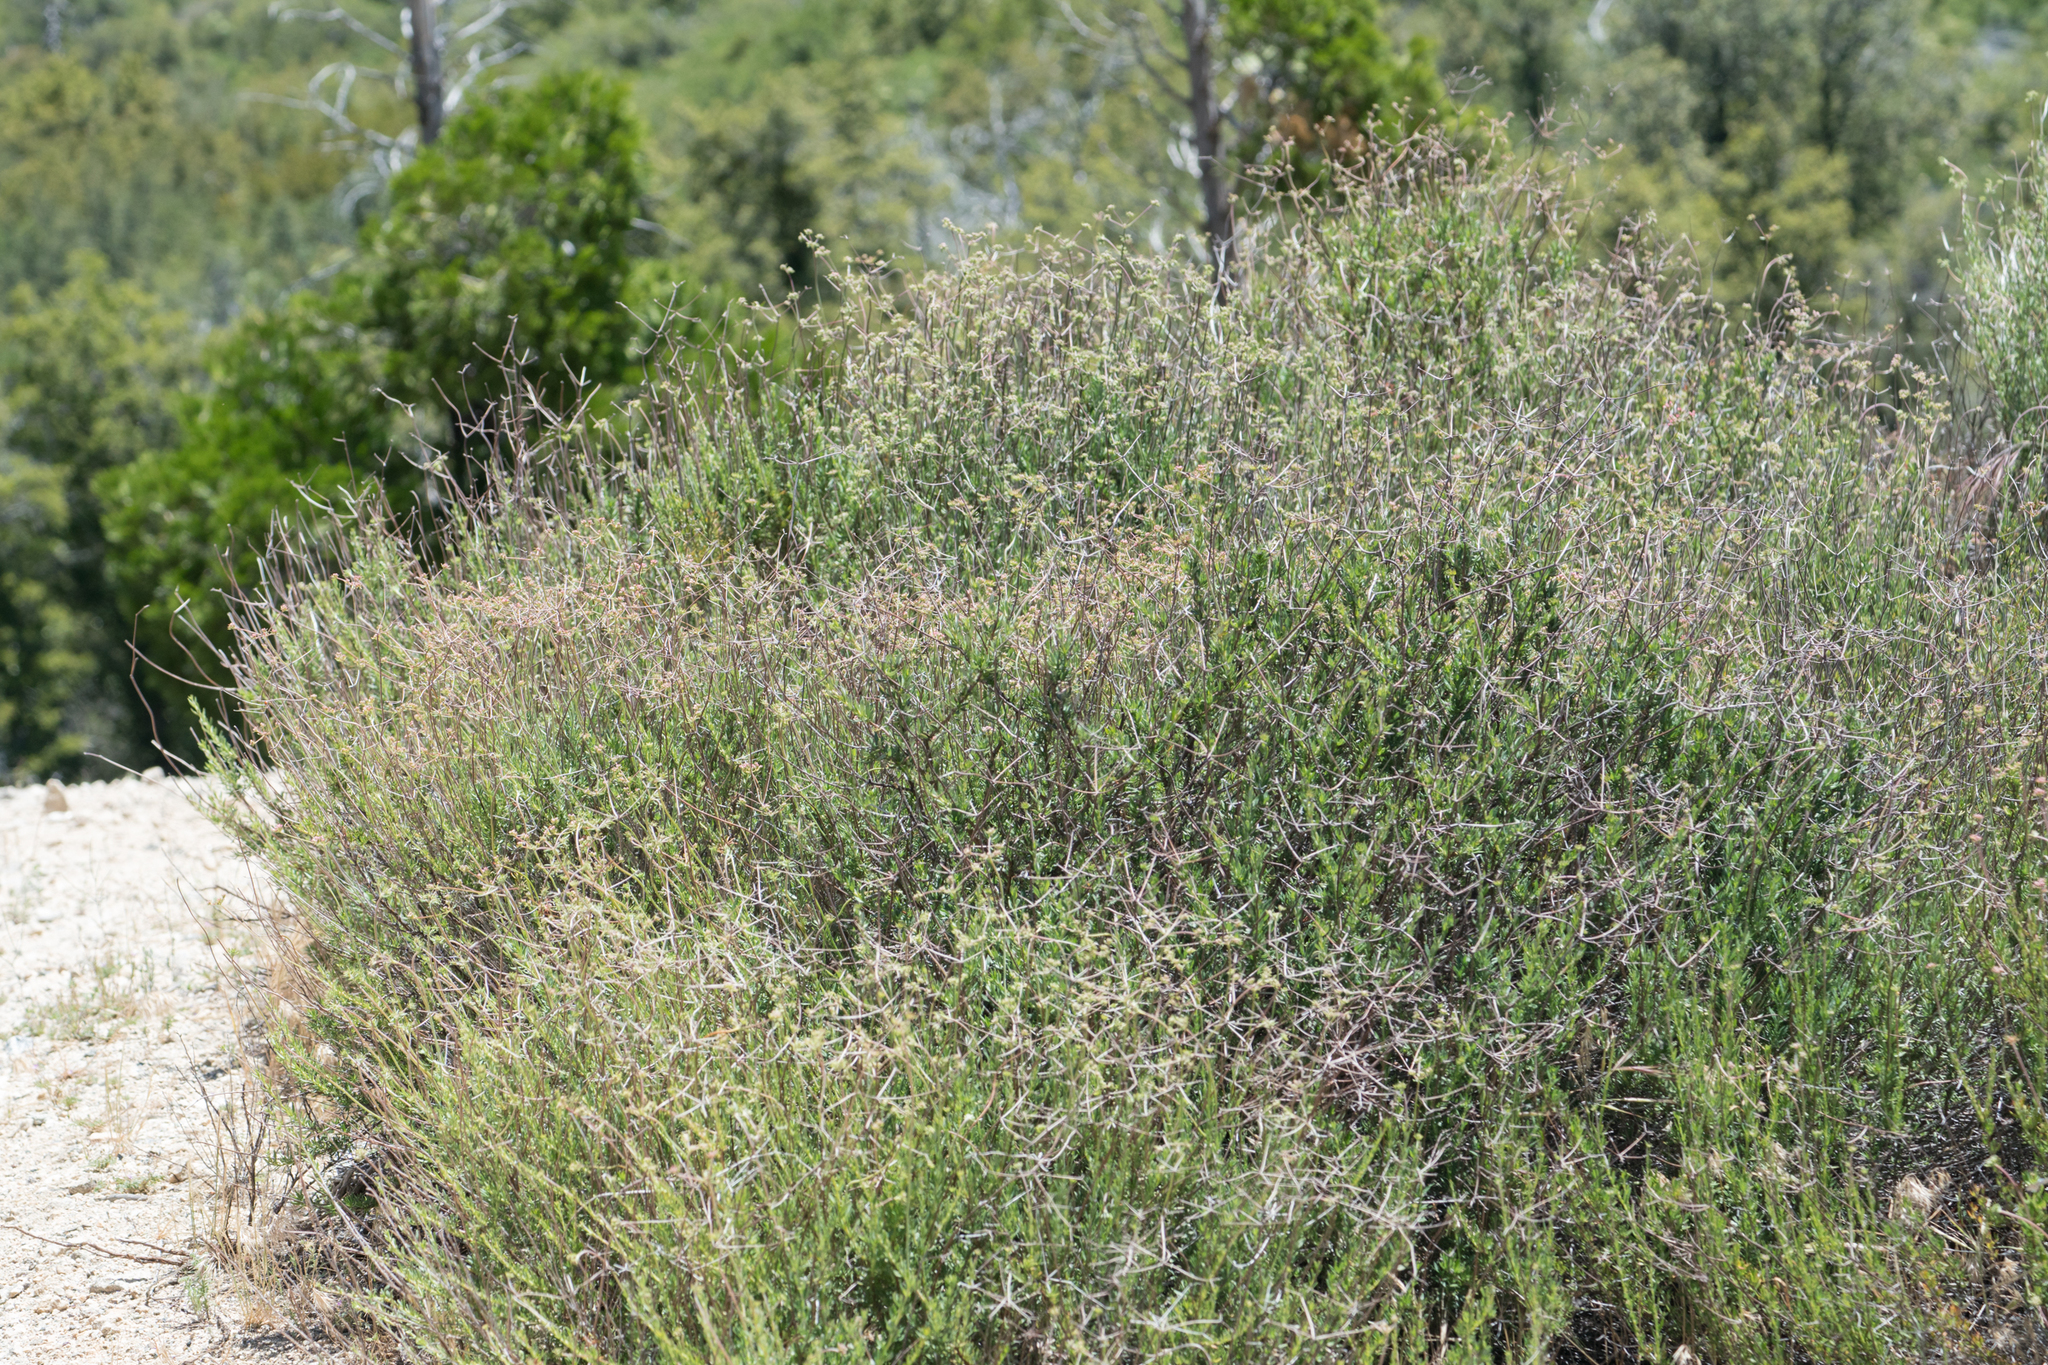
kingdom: Plantae
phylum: Tracheophyta
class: Magnoliopsida
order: Caryophyllales
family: Polygonaceae
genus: Eriogonum
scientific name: Eriogonum fasciculatum
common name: California wild buckwheat
